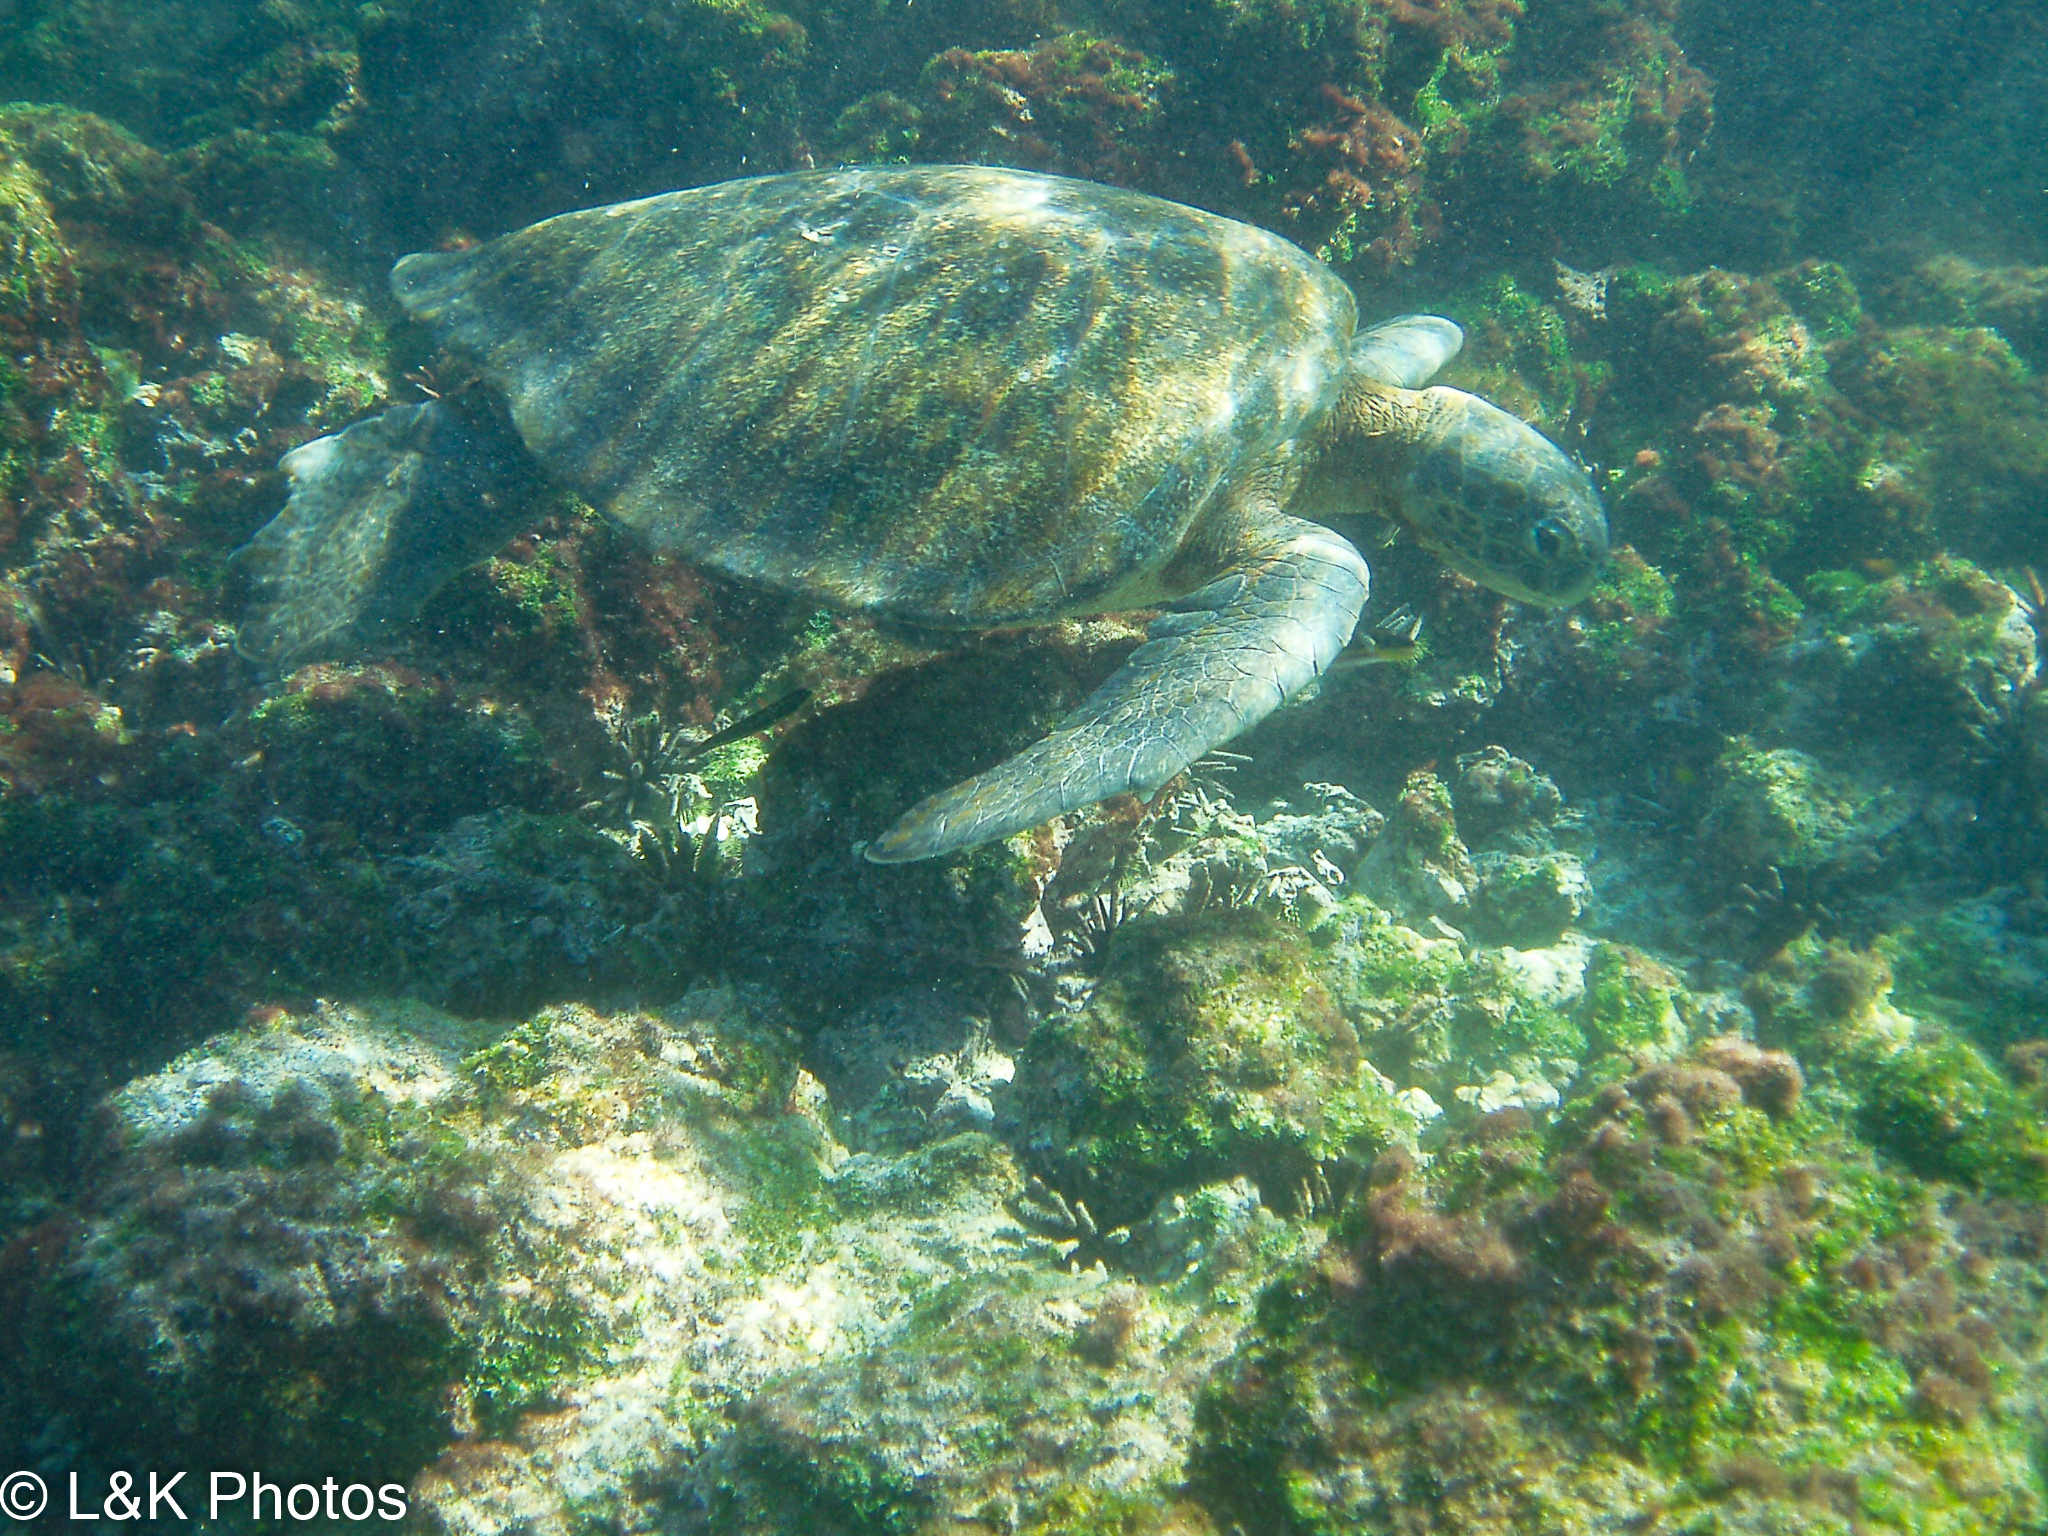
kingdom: Animalia
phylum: Chordata
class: Testudines
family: Cheloniidae
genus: Chelonia
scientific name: Chelonia mydas
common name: Green turtle
